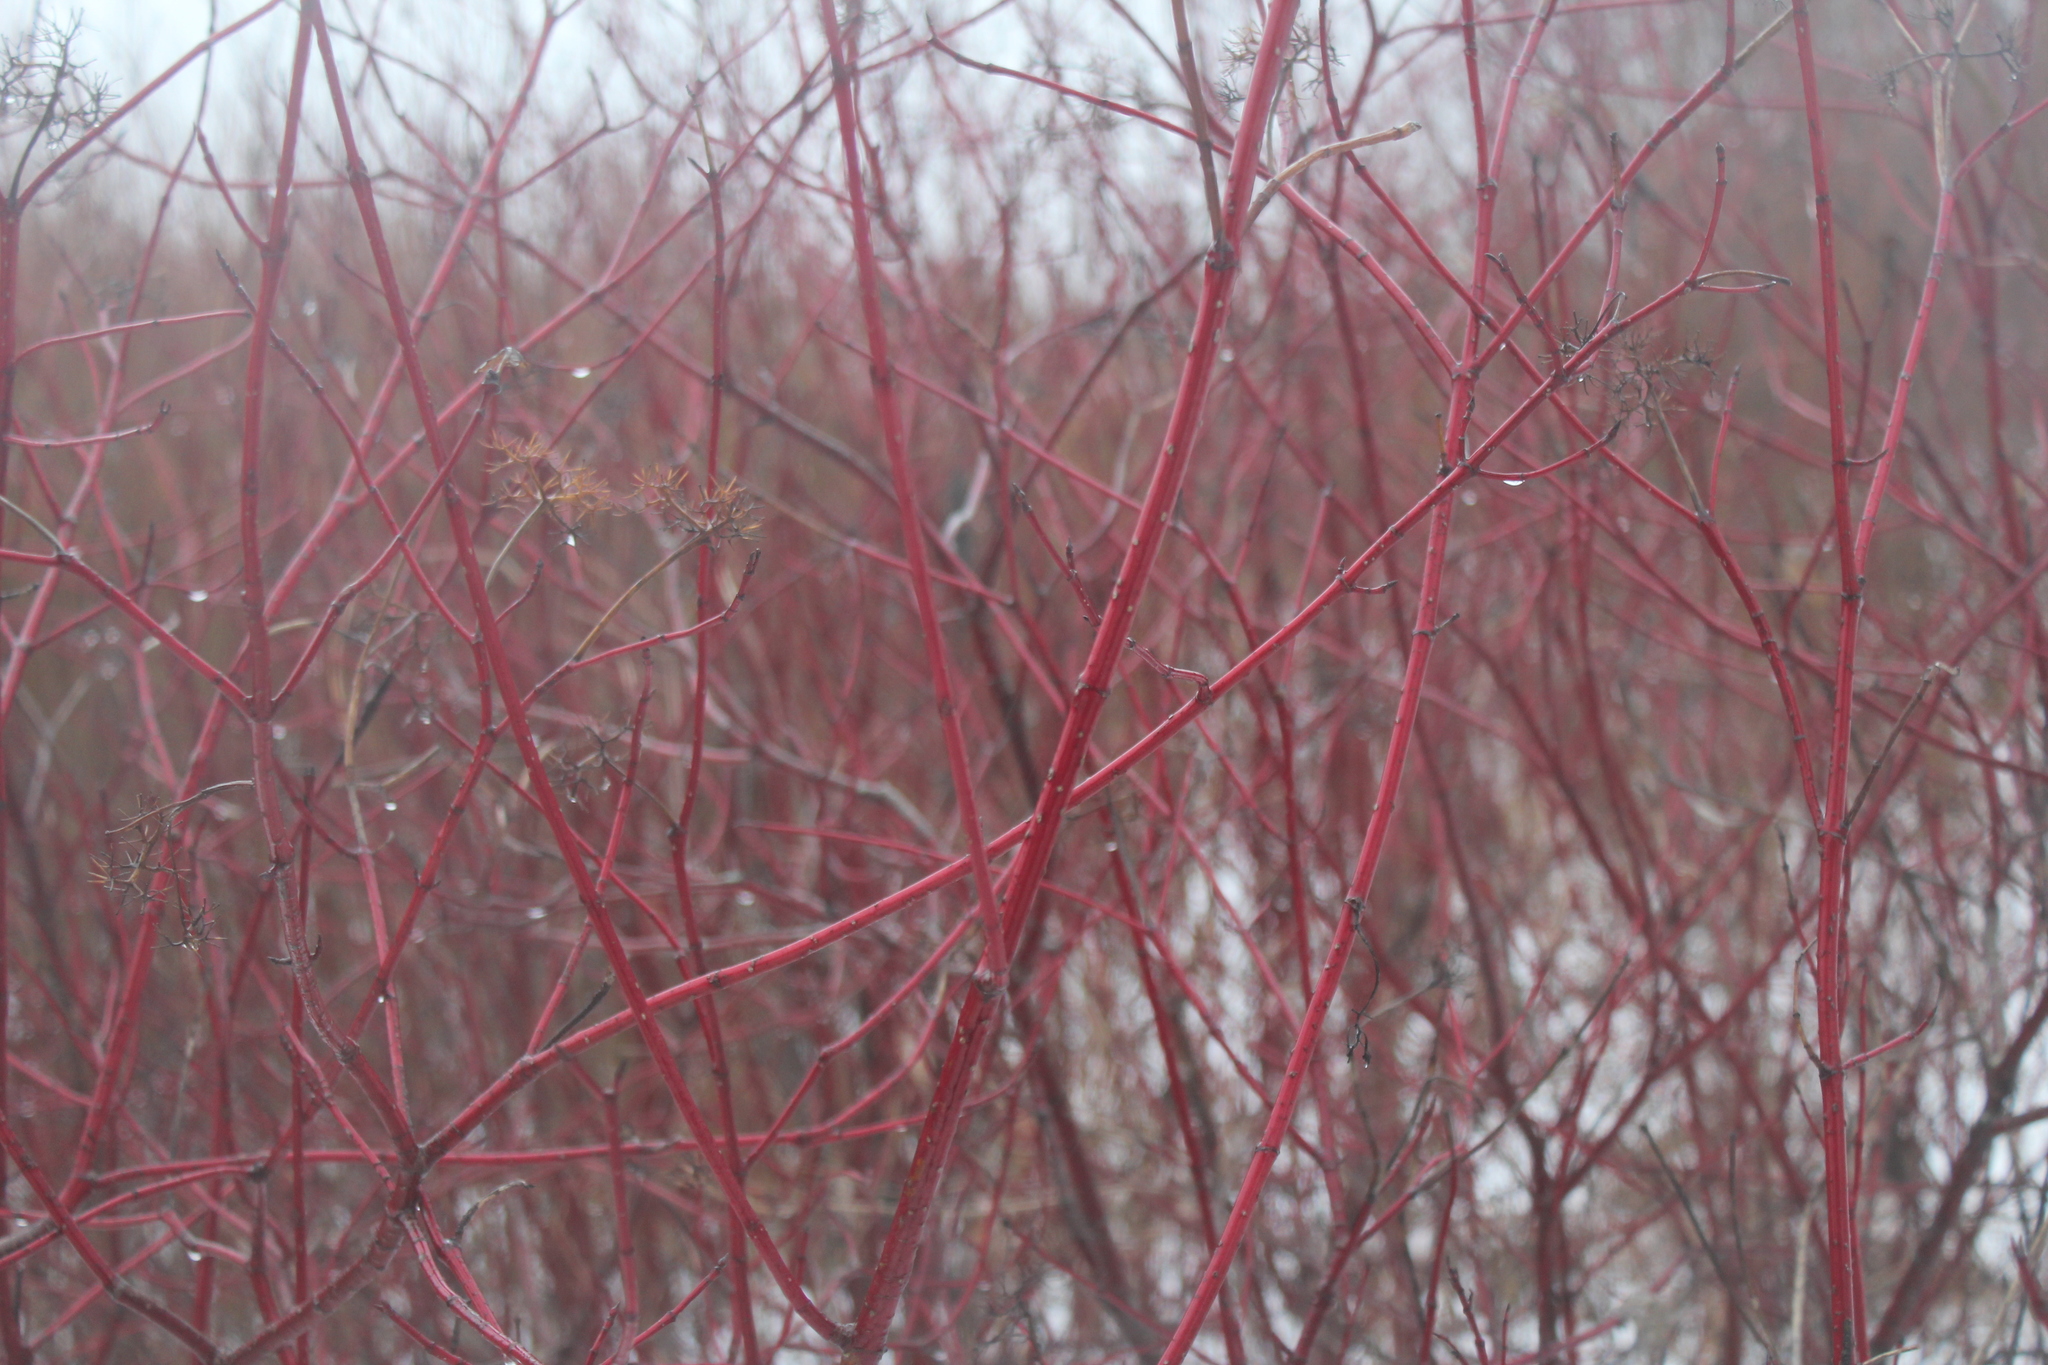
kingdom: Plantae
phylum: Tracheophyta
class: Magnoliopsida
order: Cornales
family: Cornaceae
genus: Cornus
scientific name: Cornus sericea
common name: Red-osier dogwood
